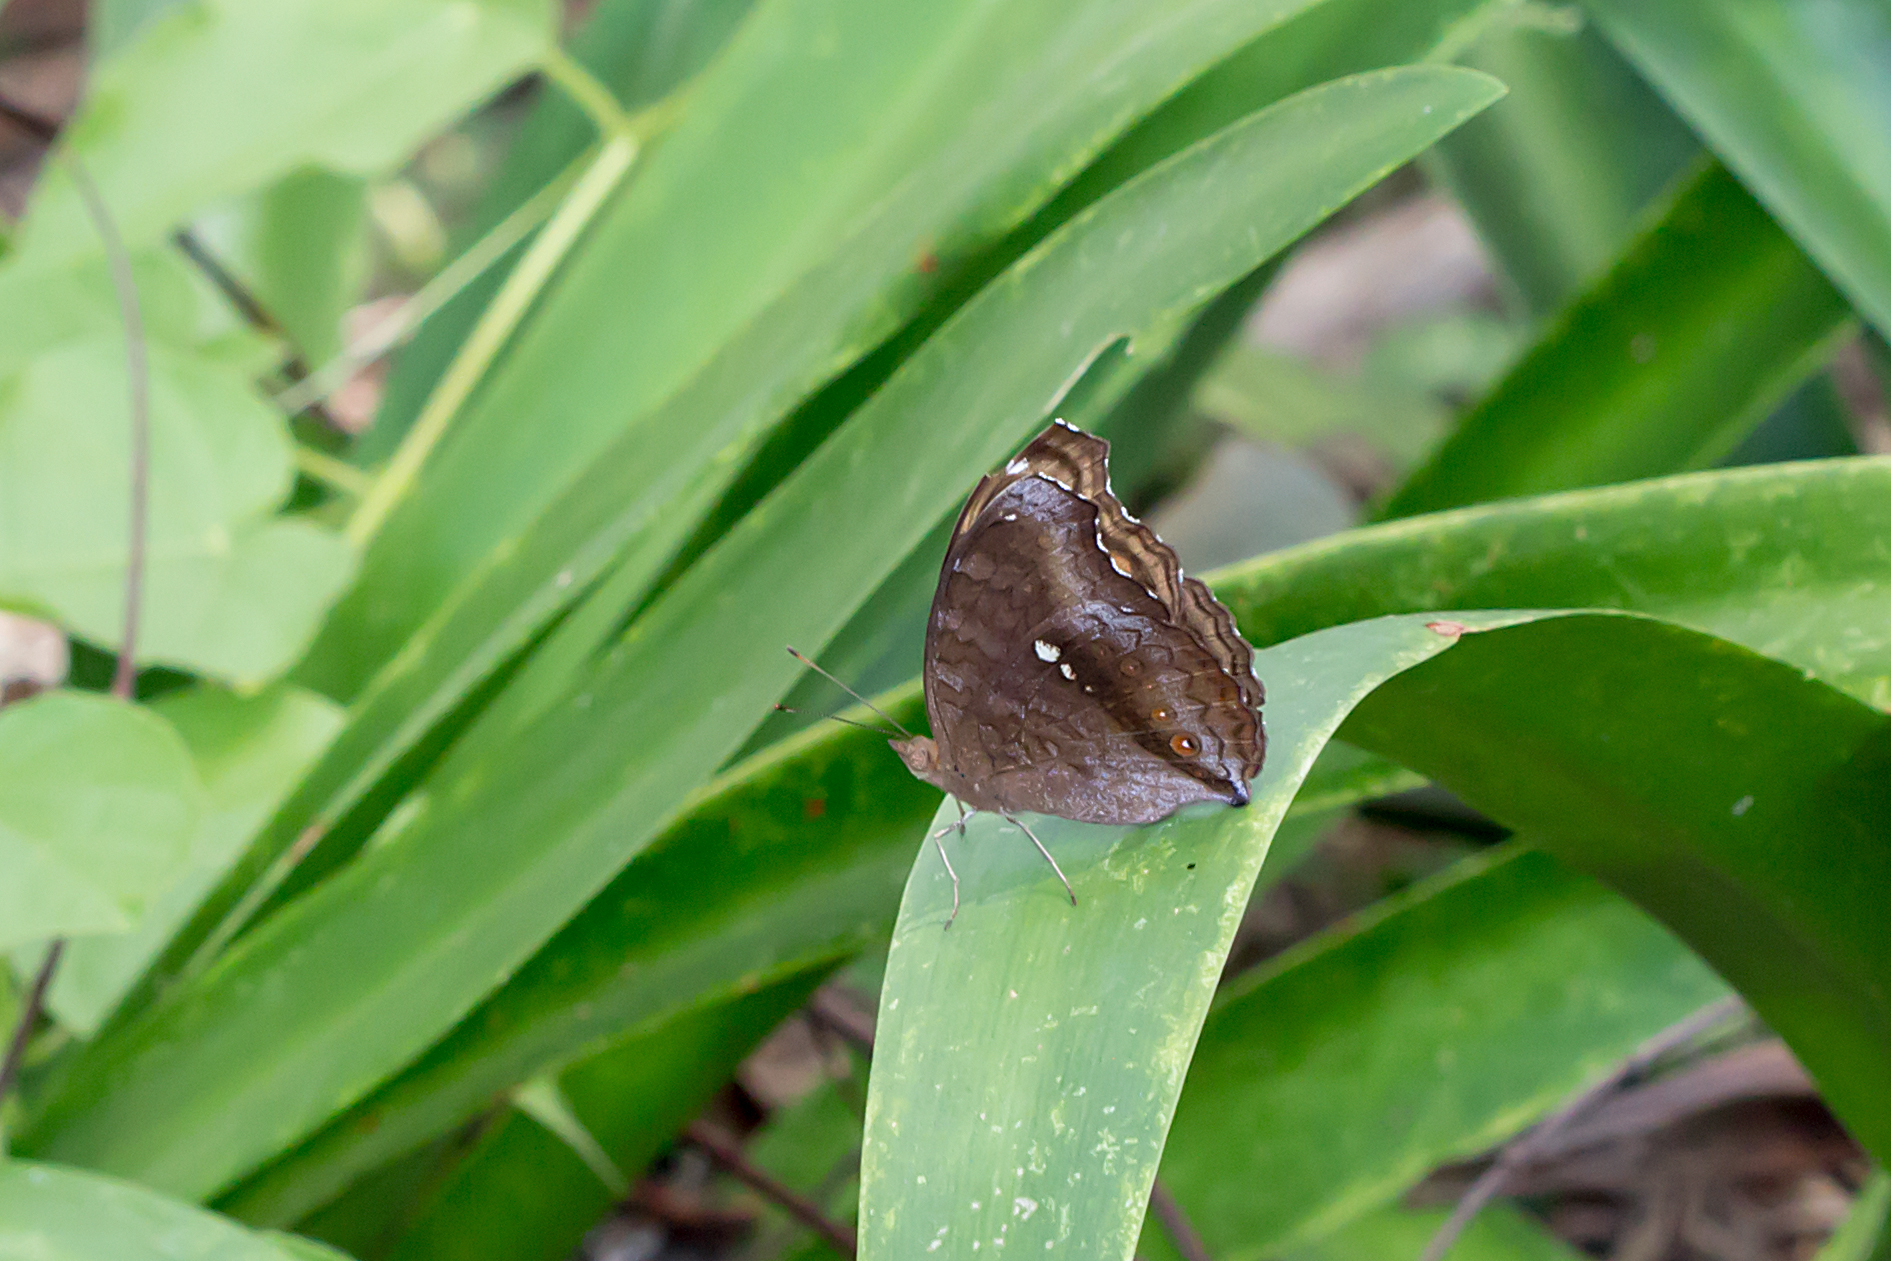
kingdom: Animalia
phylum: Arthropoda
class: Insecta
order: Lepidoptera
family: Nymphalidae
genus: Junonia
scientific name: Junonia hedonia
